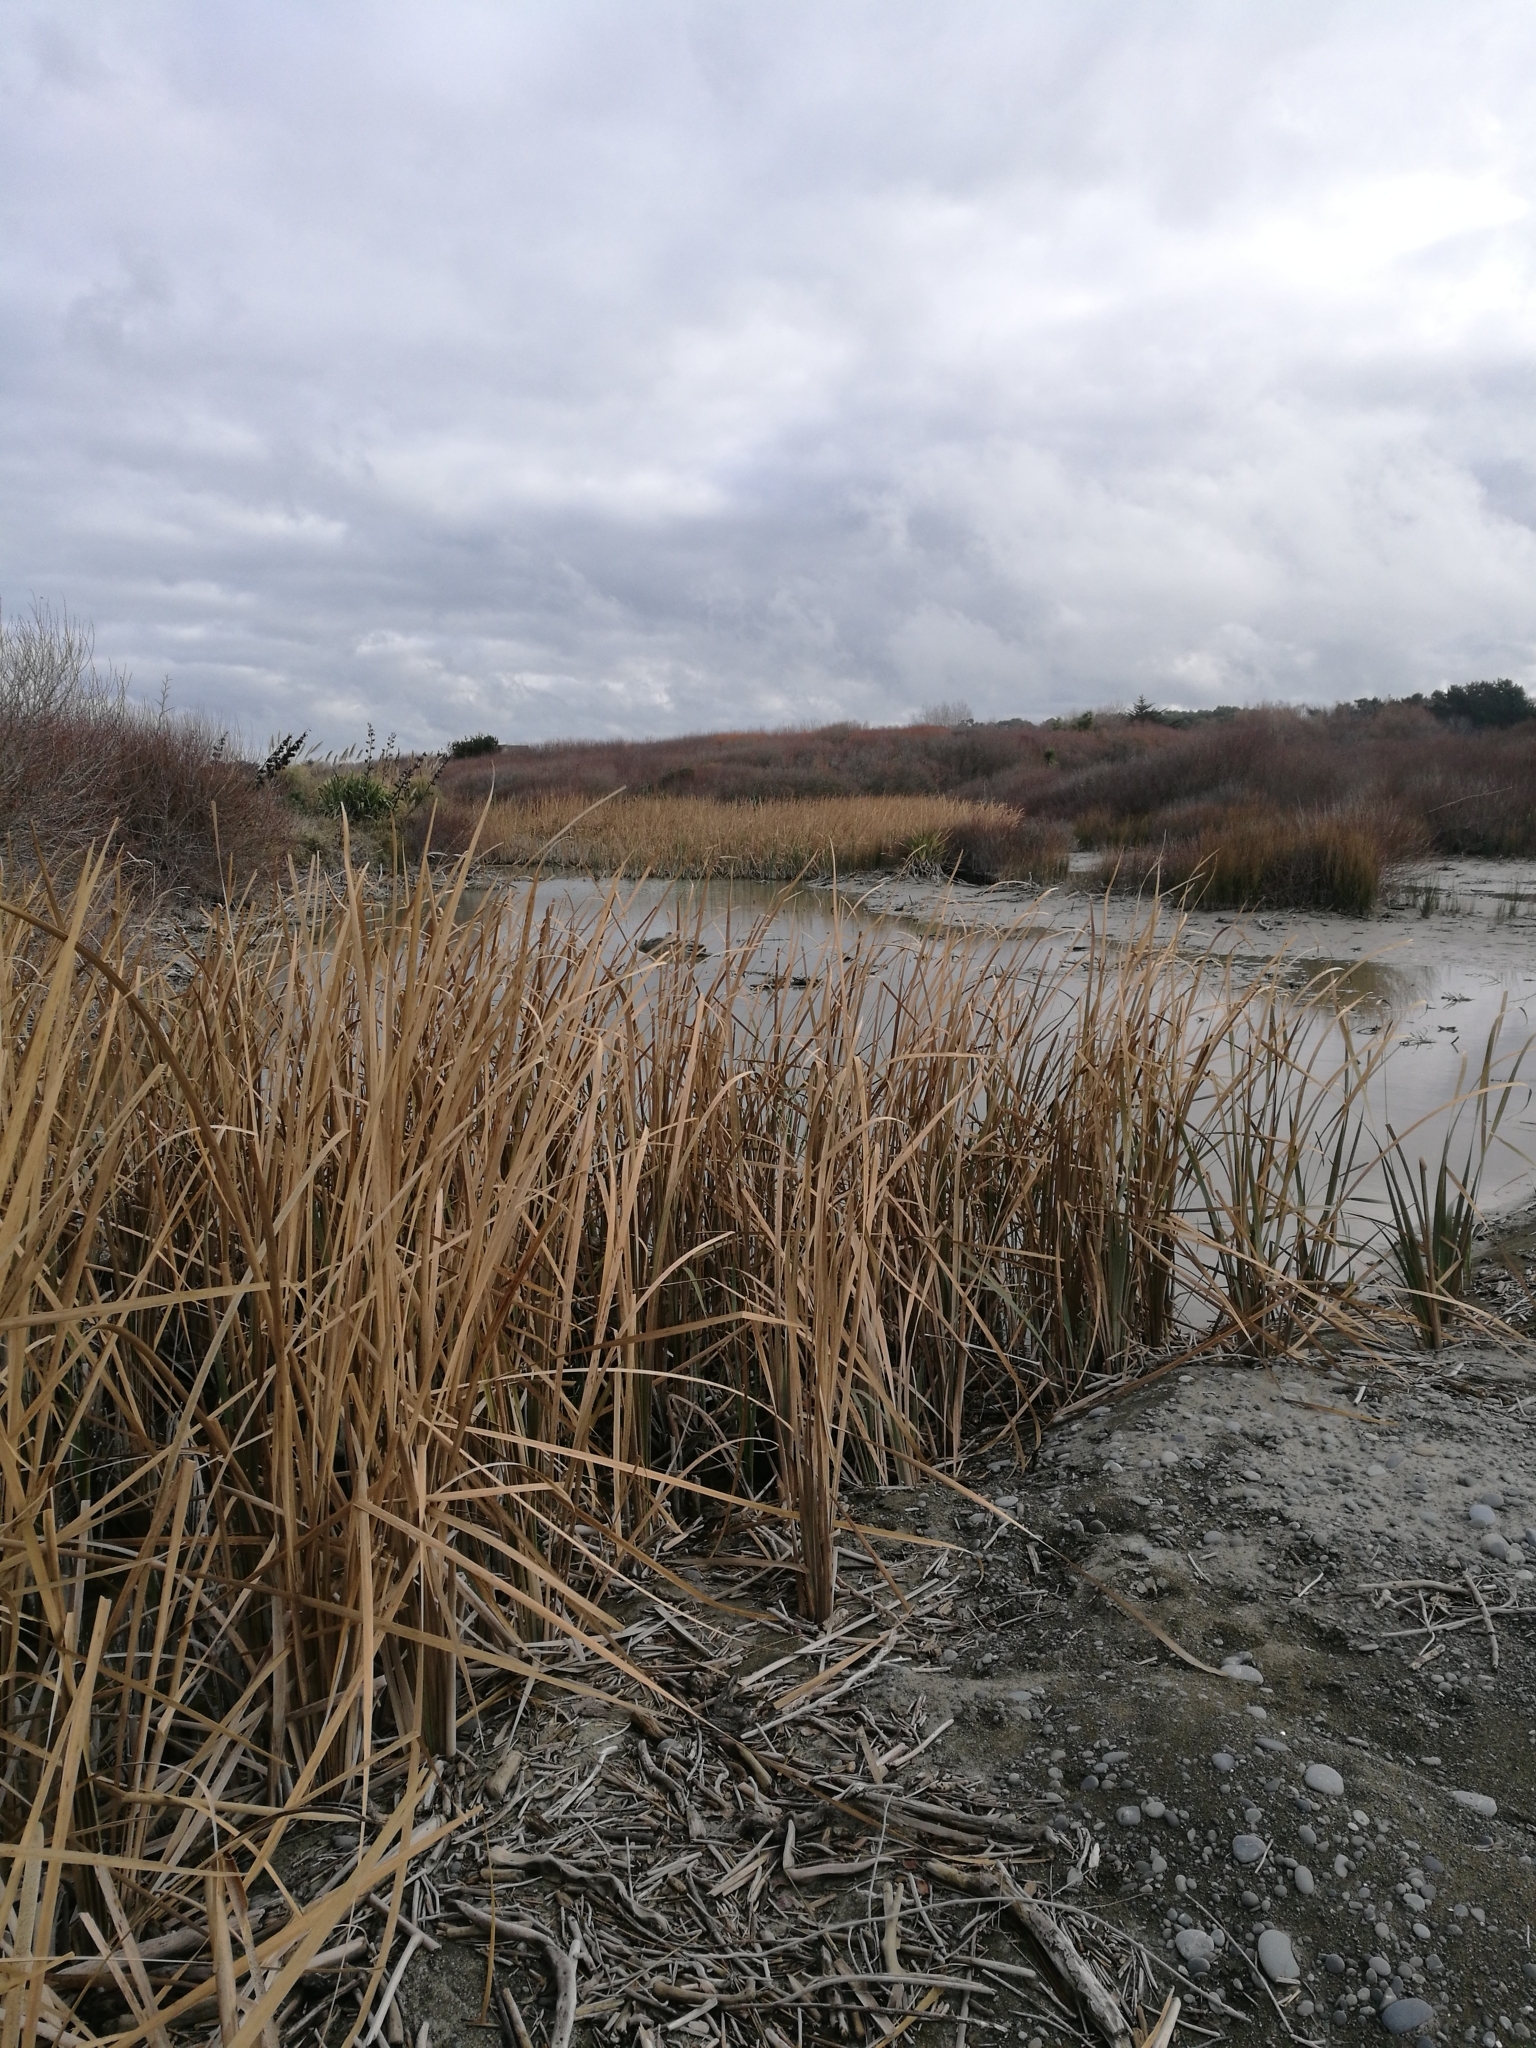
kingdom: Plantae
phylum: Tracheophyta
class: Liliopsida
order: Poales
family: Typhaceae
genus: Typha
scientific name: Typha orientalis
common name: Bullrush
